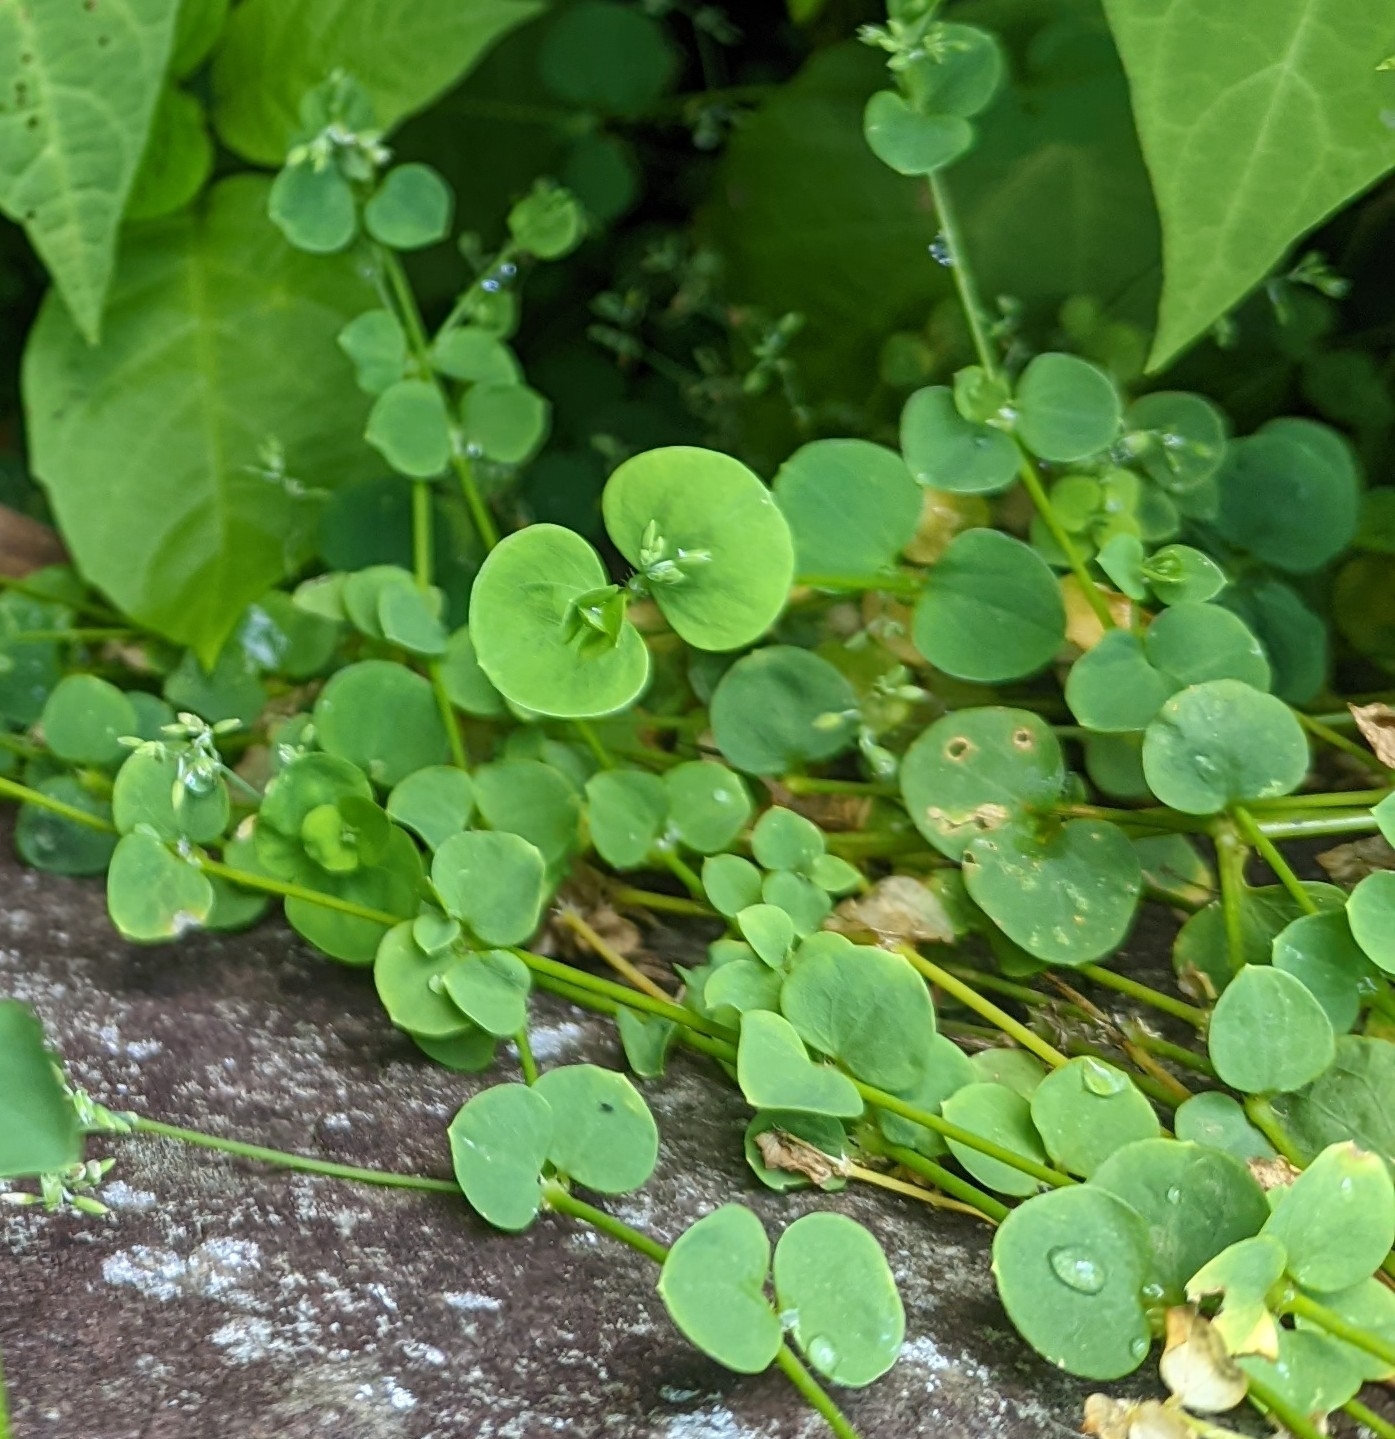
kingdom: Plantae
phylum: Tracheophyta
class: Magnoliopsida
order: Caryophyllales
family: Caryophyllaceae
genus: Drymaria
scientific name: Drymaria cordata
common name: Whitesnow
